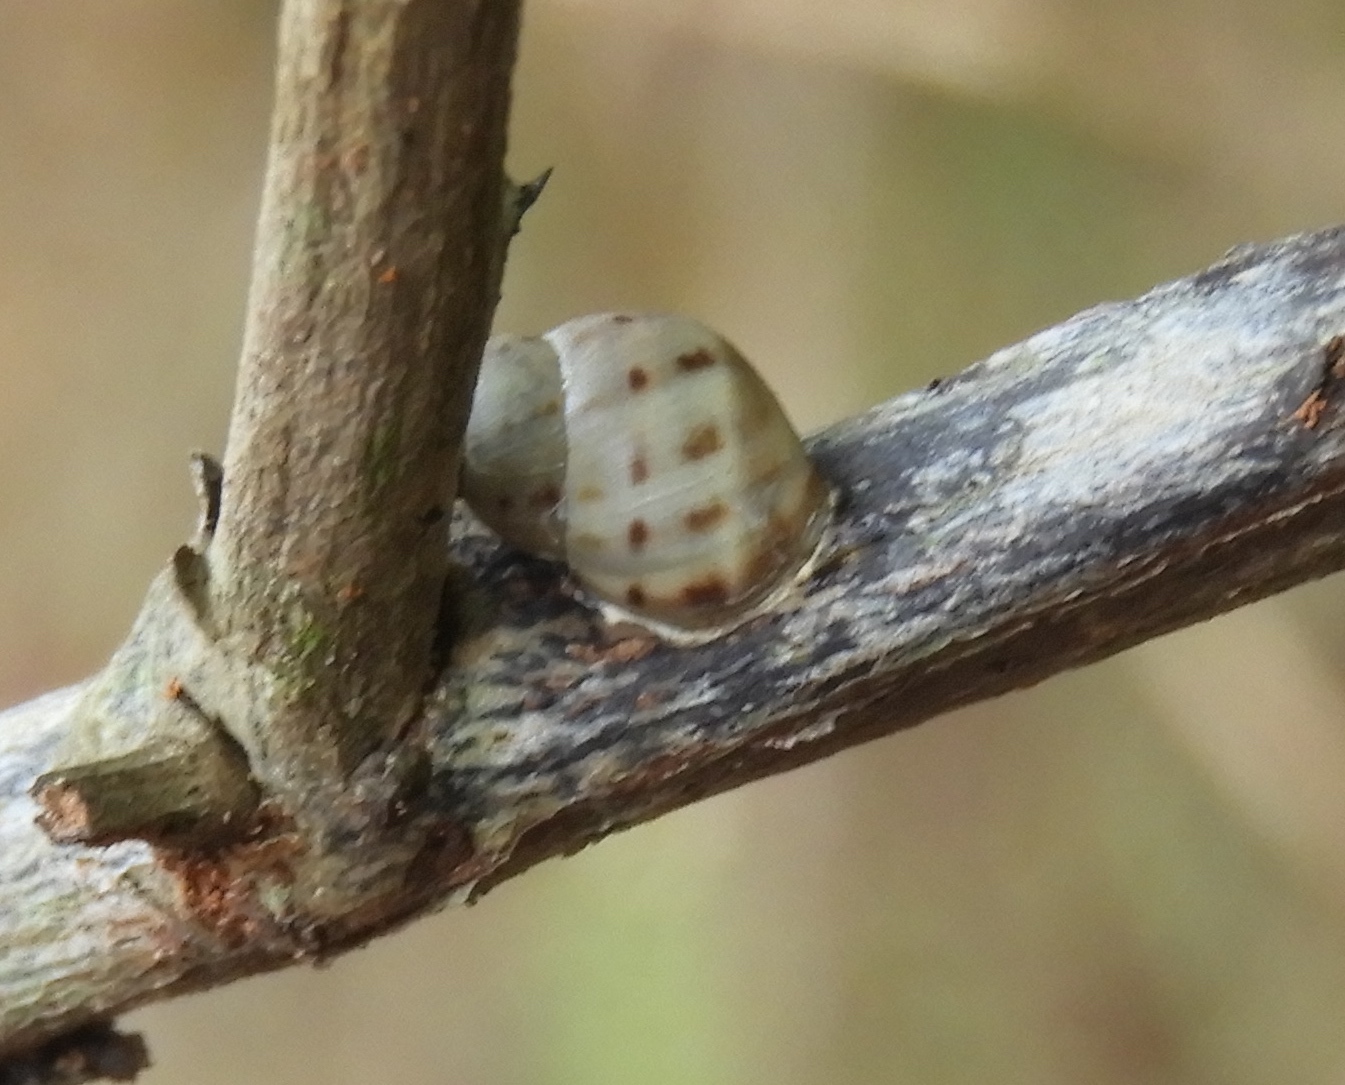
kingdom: Animalia
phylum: Mollusca
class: Gastropoda
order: Stylommatophora
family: Bulimulidae
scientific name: Bulimulidae
